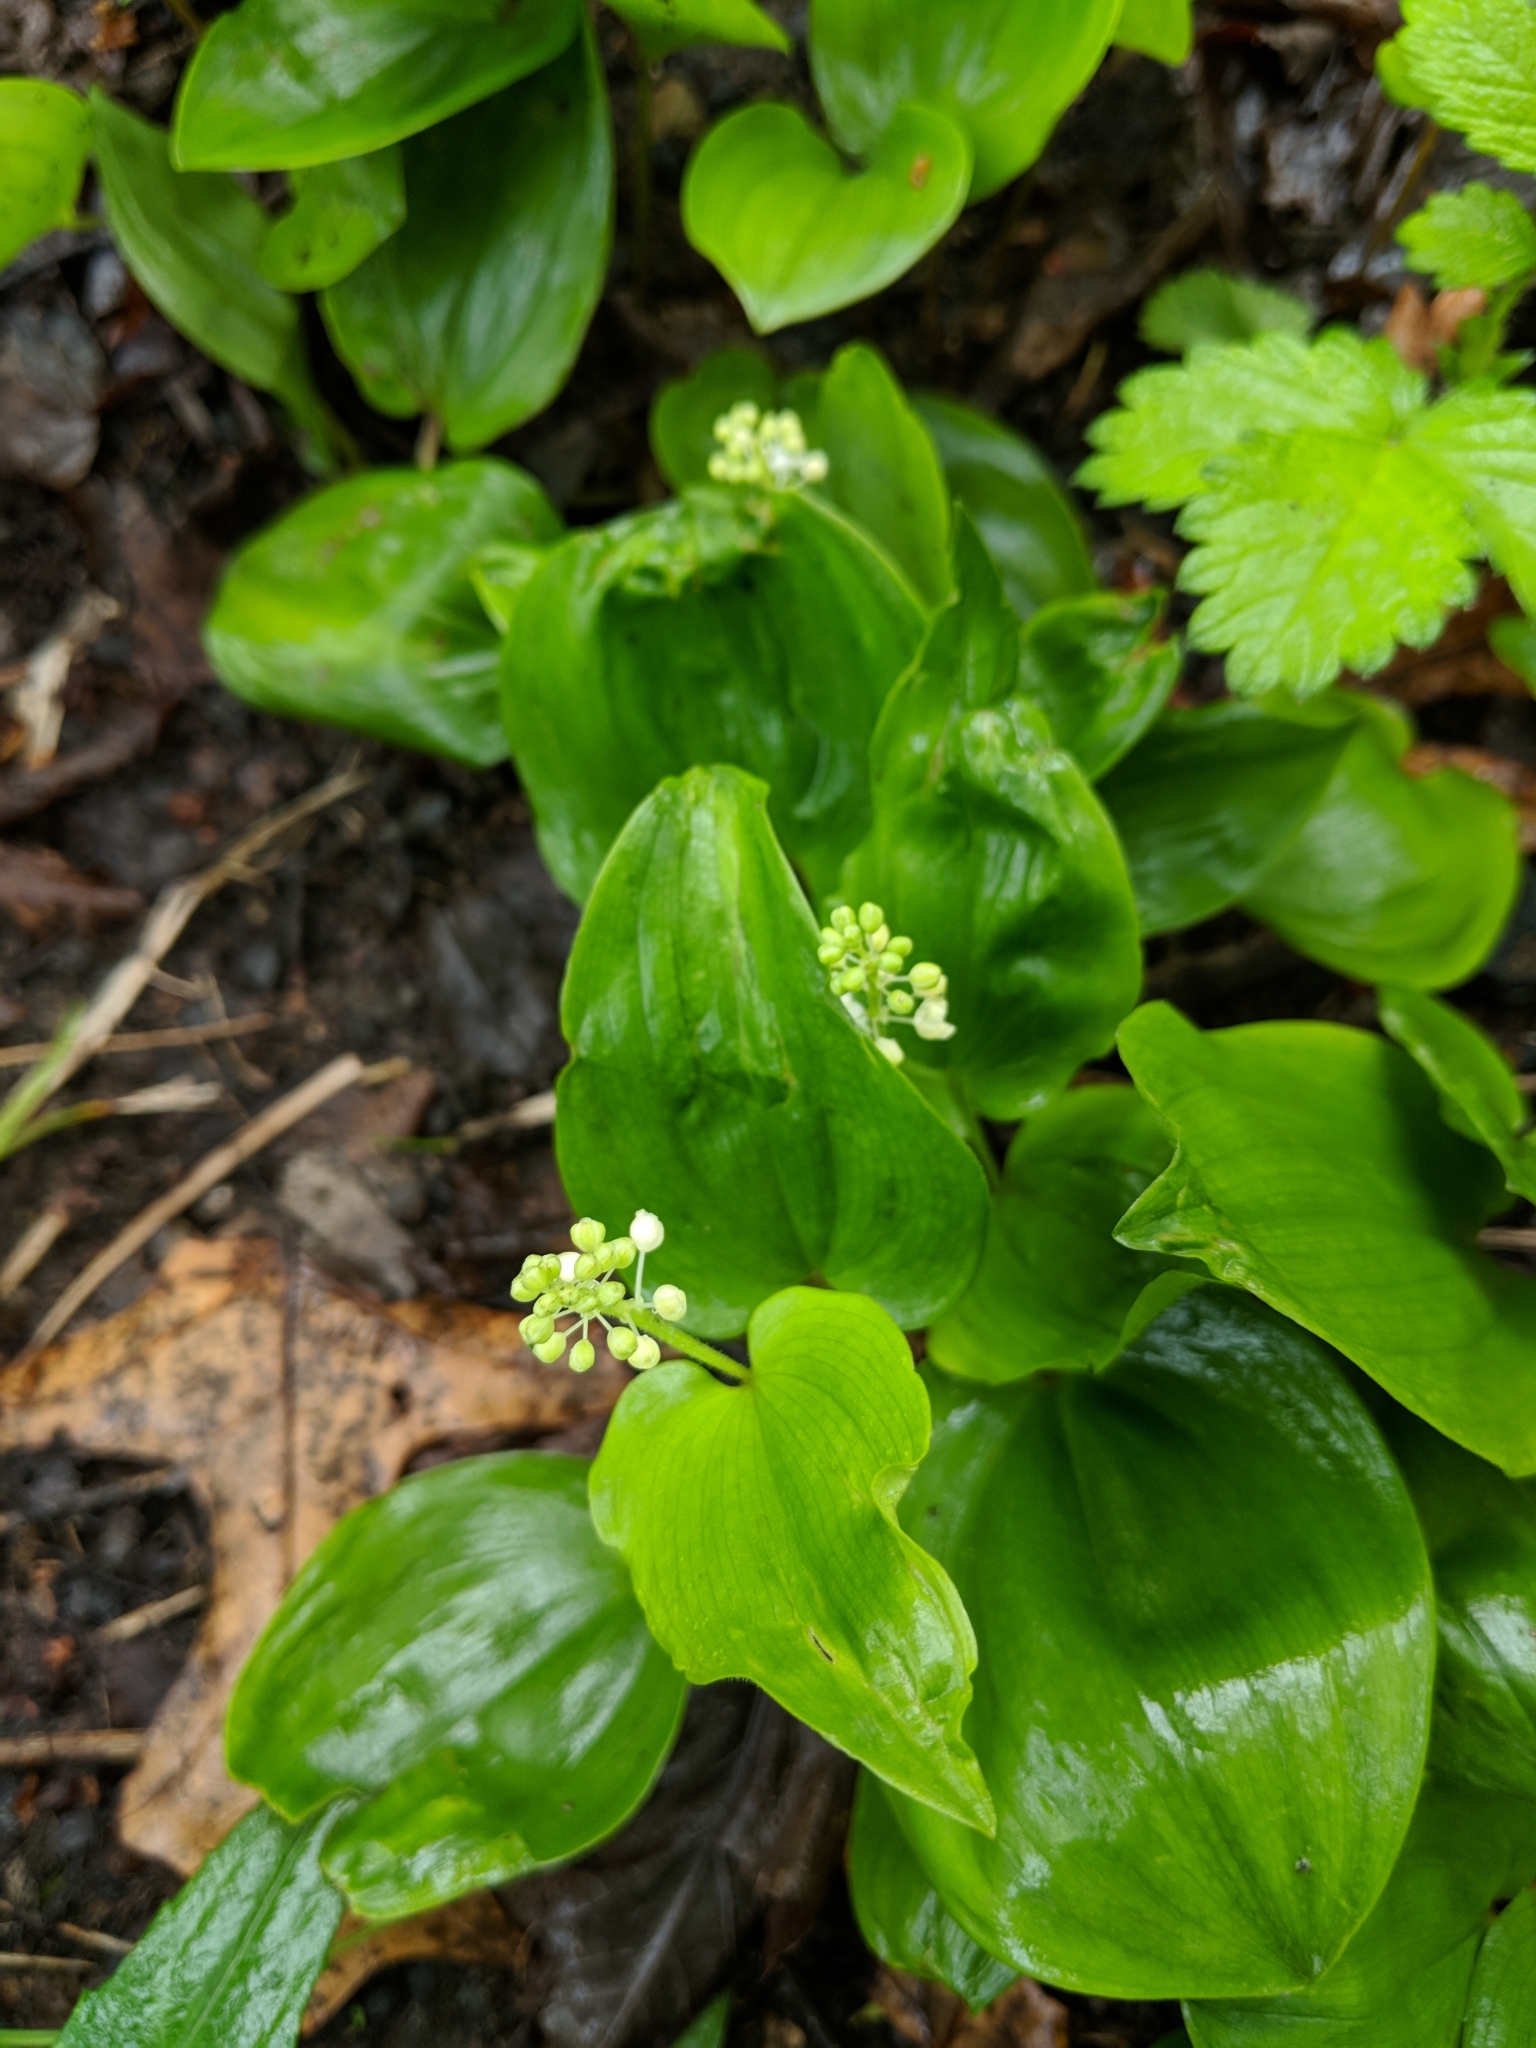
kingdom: Plantae
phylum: Tracheophyta
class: Liliopsida
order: Asparagales
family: Asparagaceae
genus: Maianthemum
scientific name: Maianthemum canadense
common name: False lily-of-the-valley
